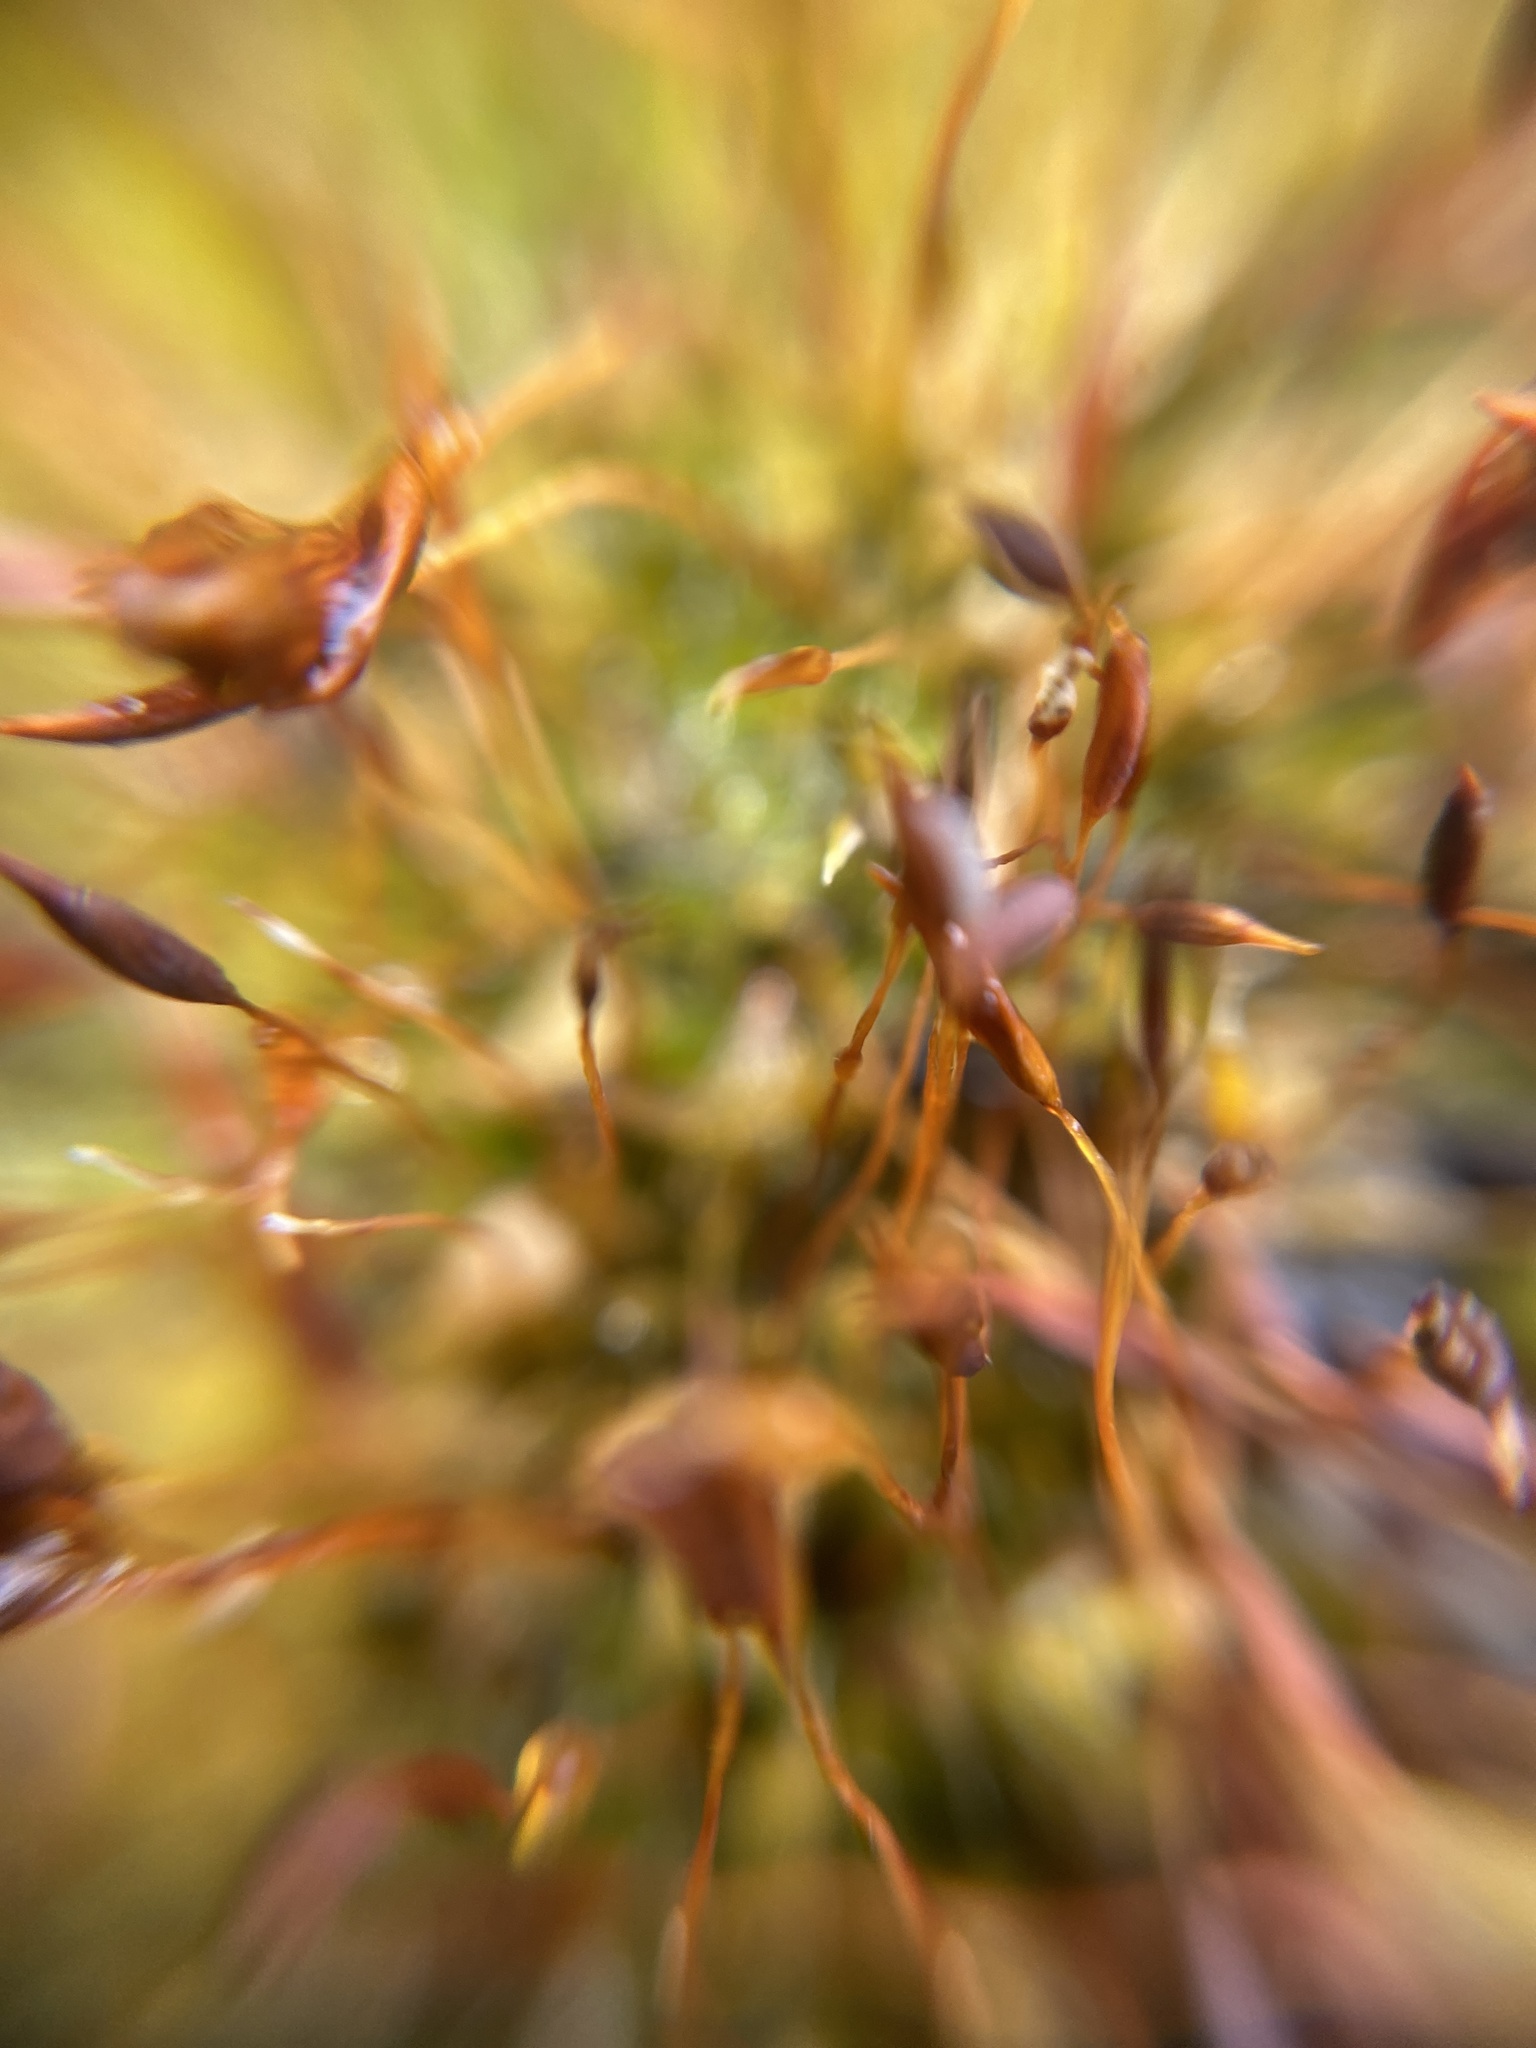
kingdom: Plantae
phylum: Bryophyta
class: Bryopsida
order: Pottiales
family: Pottiaceae
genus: Tortula
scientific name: Tortula muralis
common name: Wall screw-moss
